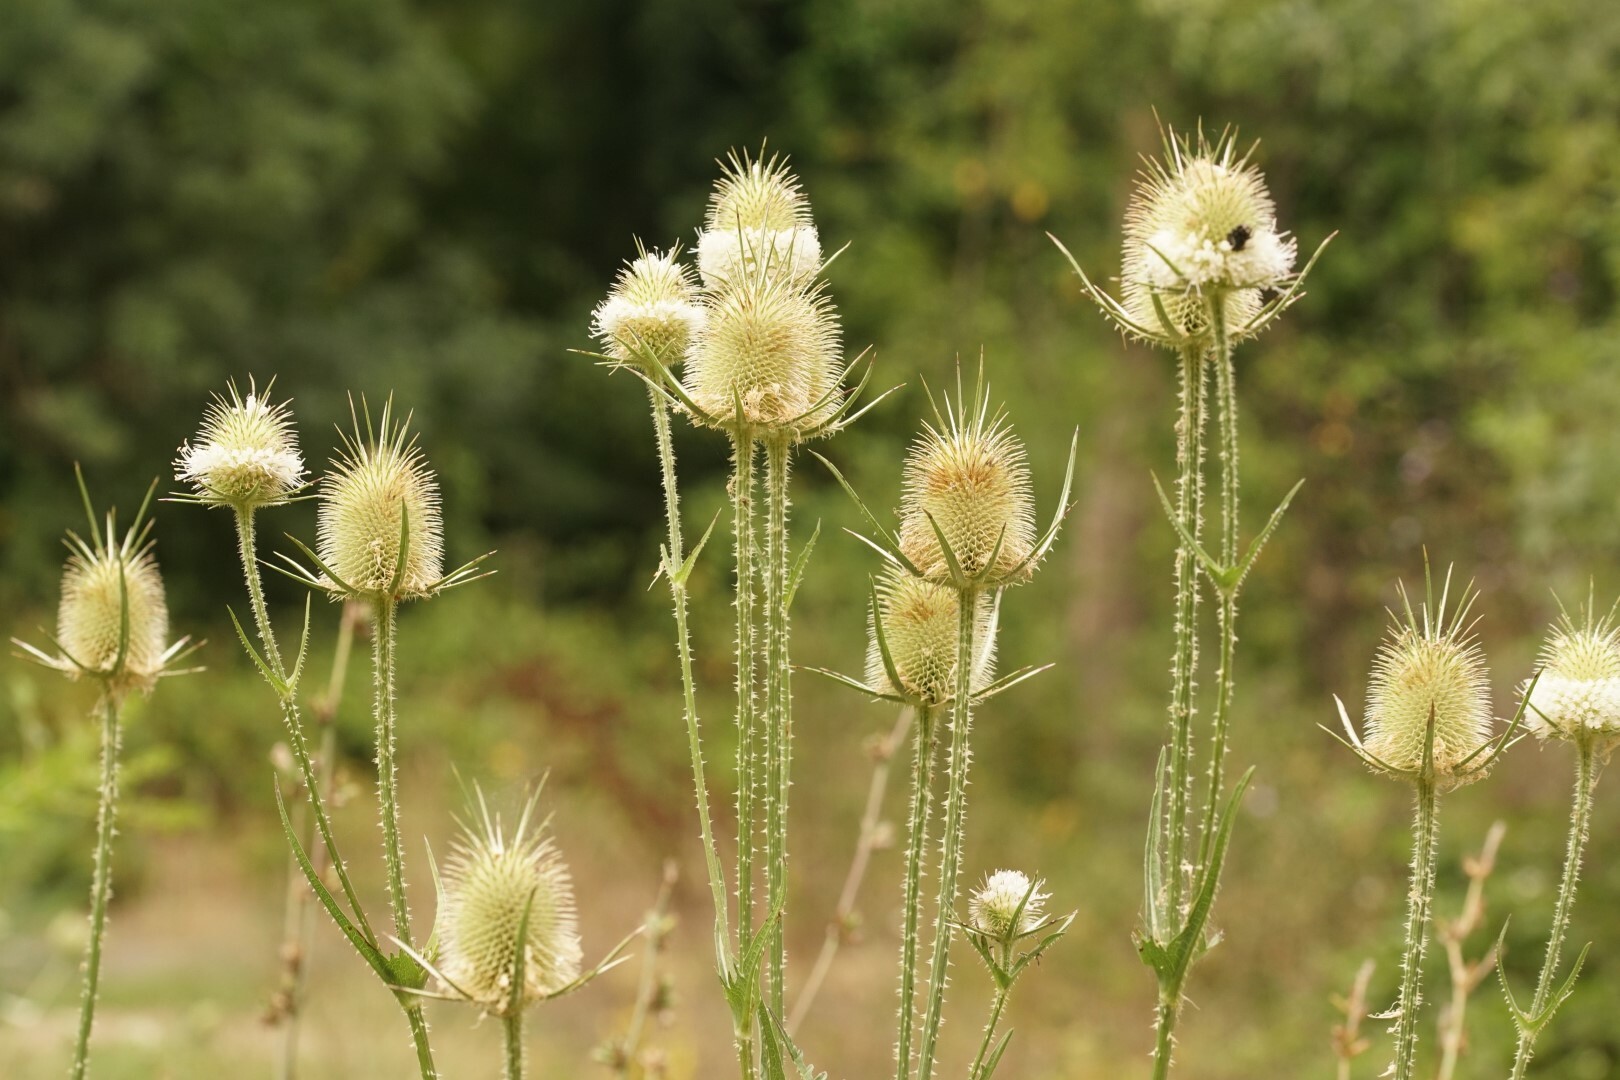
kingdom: Plantae
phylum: Tracheophyta
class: Magnoliopsida
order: Dipsacales
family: Caprifoliaceae
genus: Dipsacus
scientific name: Dipsacus laciniatus
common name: Cut-leaved teasel
